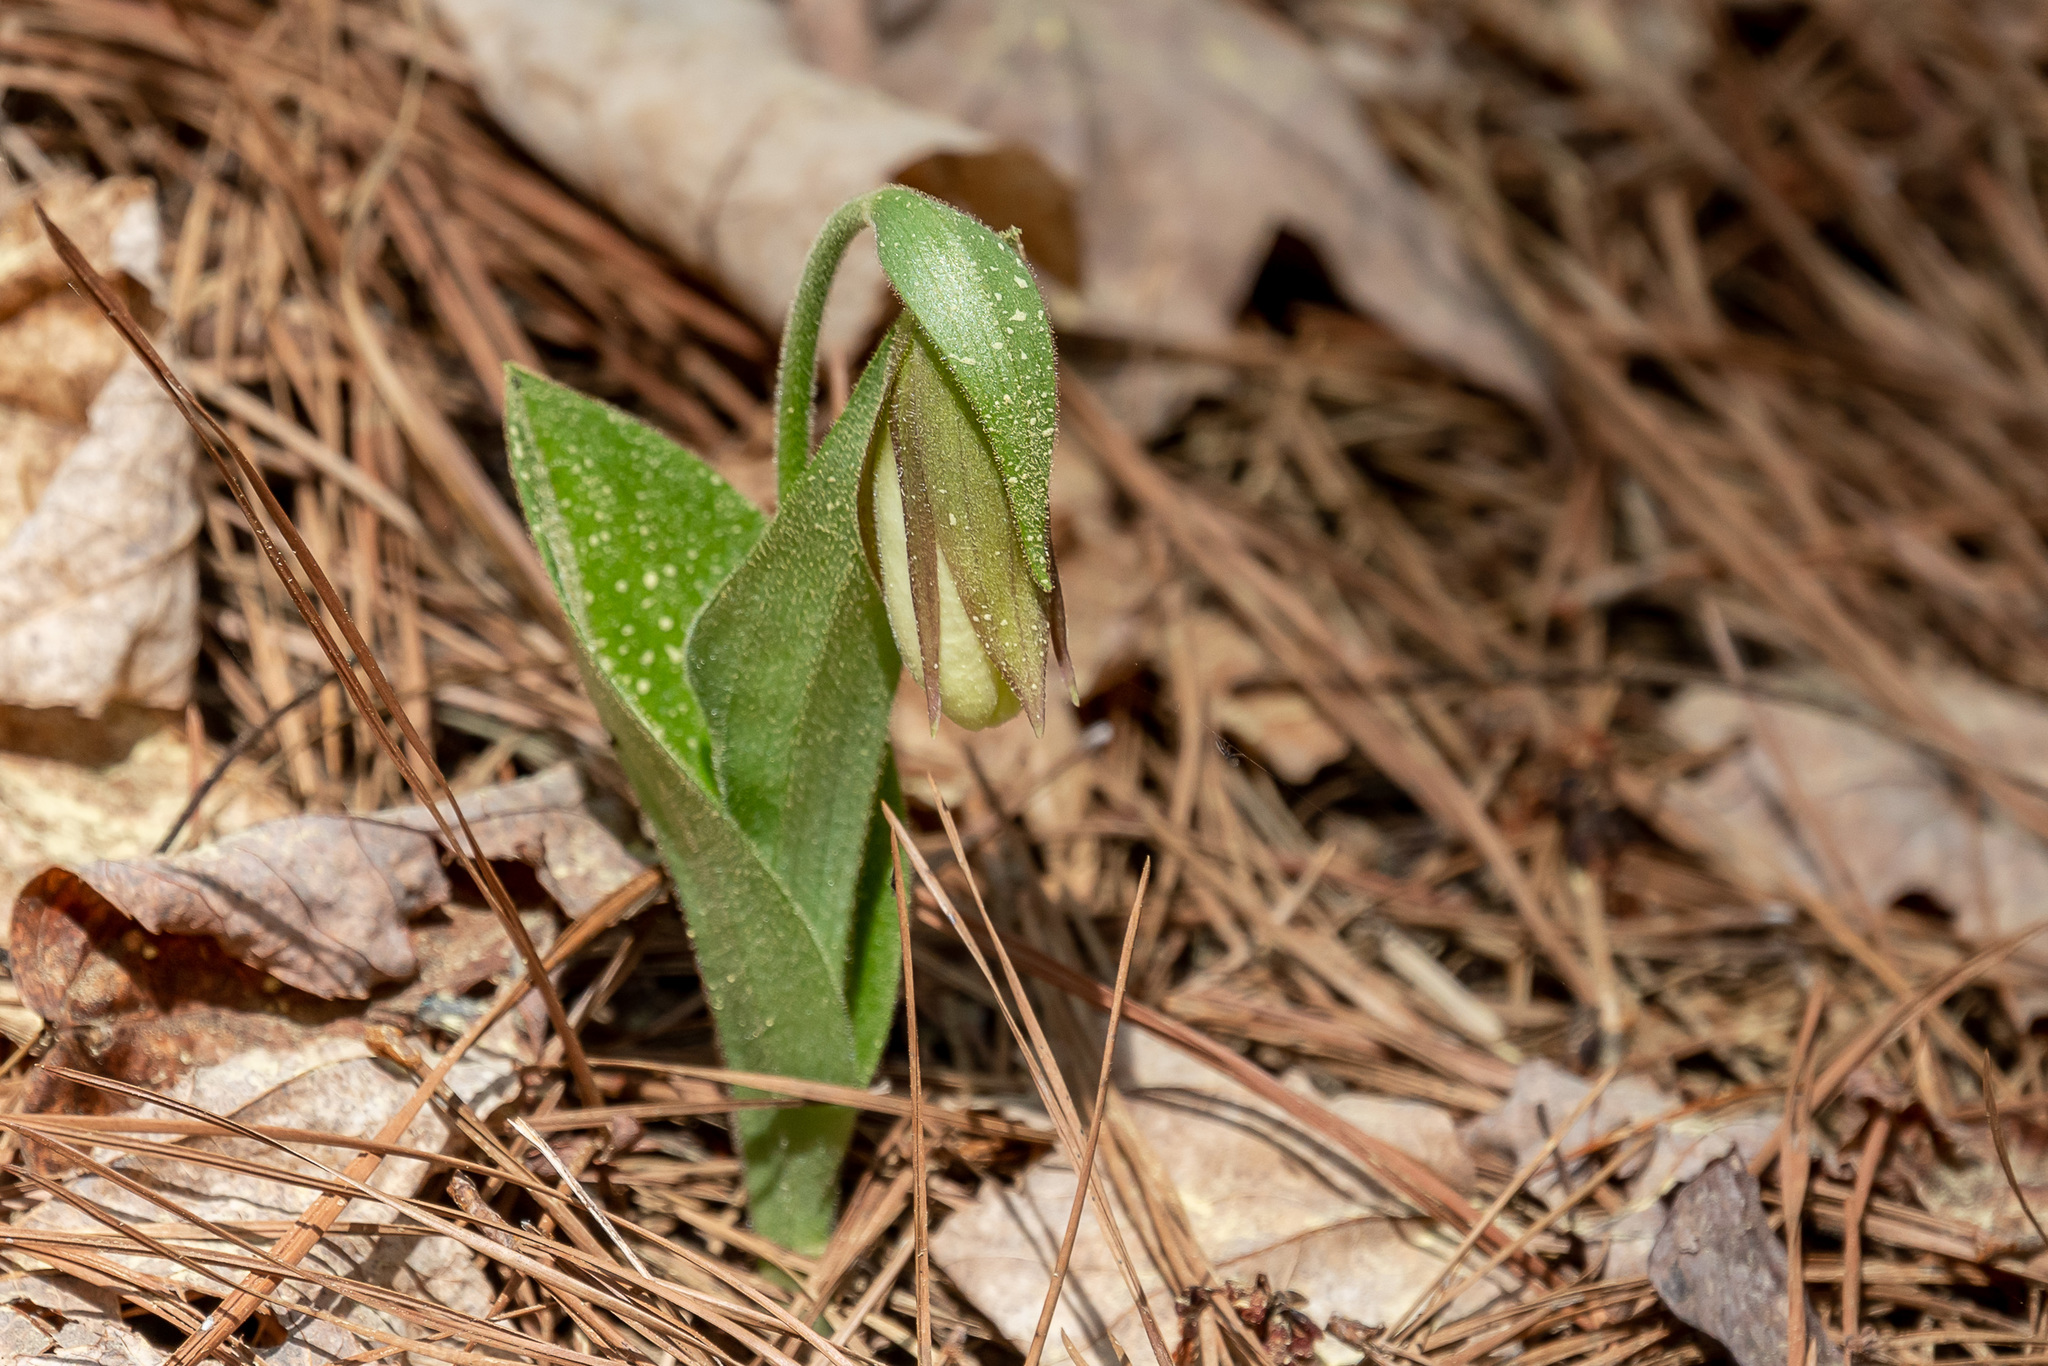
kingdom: Plantae
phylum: Tracheophyta
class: Liliopsida
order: Asparagales
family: Orchidaceae
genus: Cypripedium
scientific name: Cypripedium acaule
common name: Pink lady's-slipper
